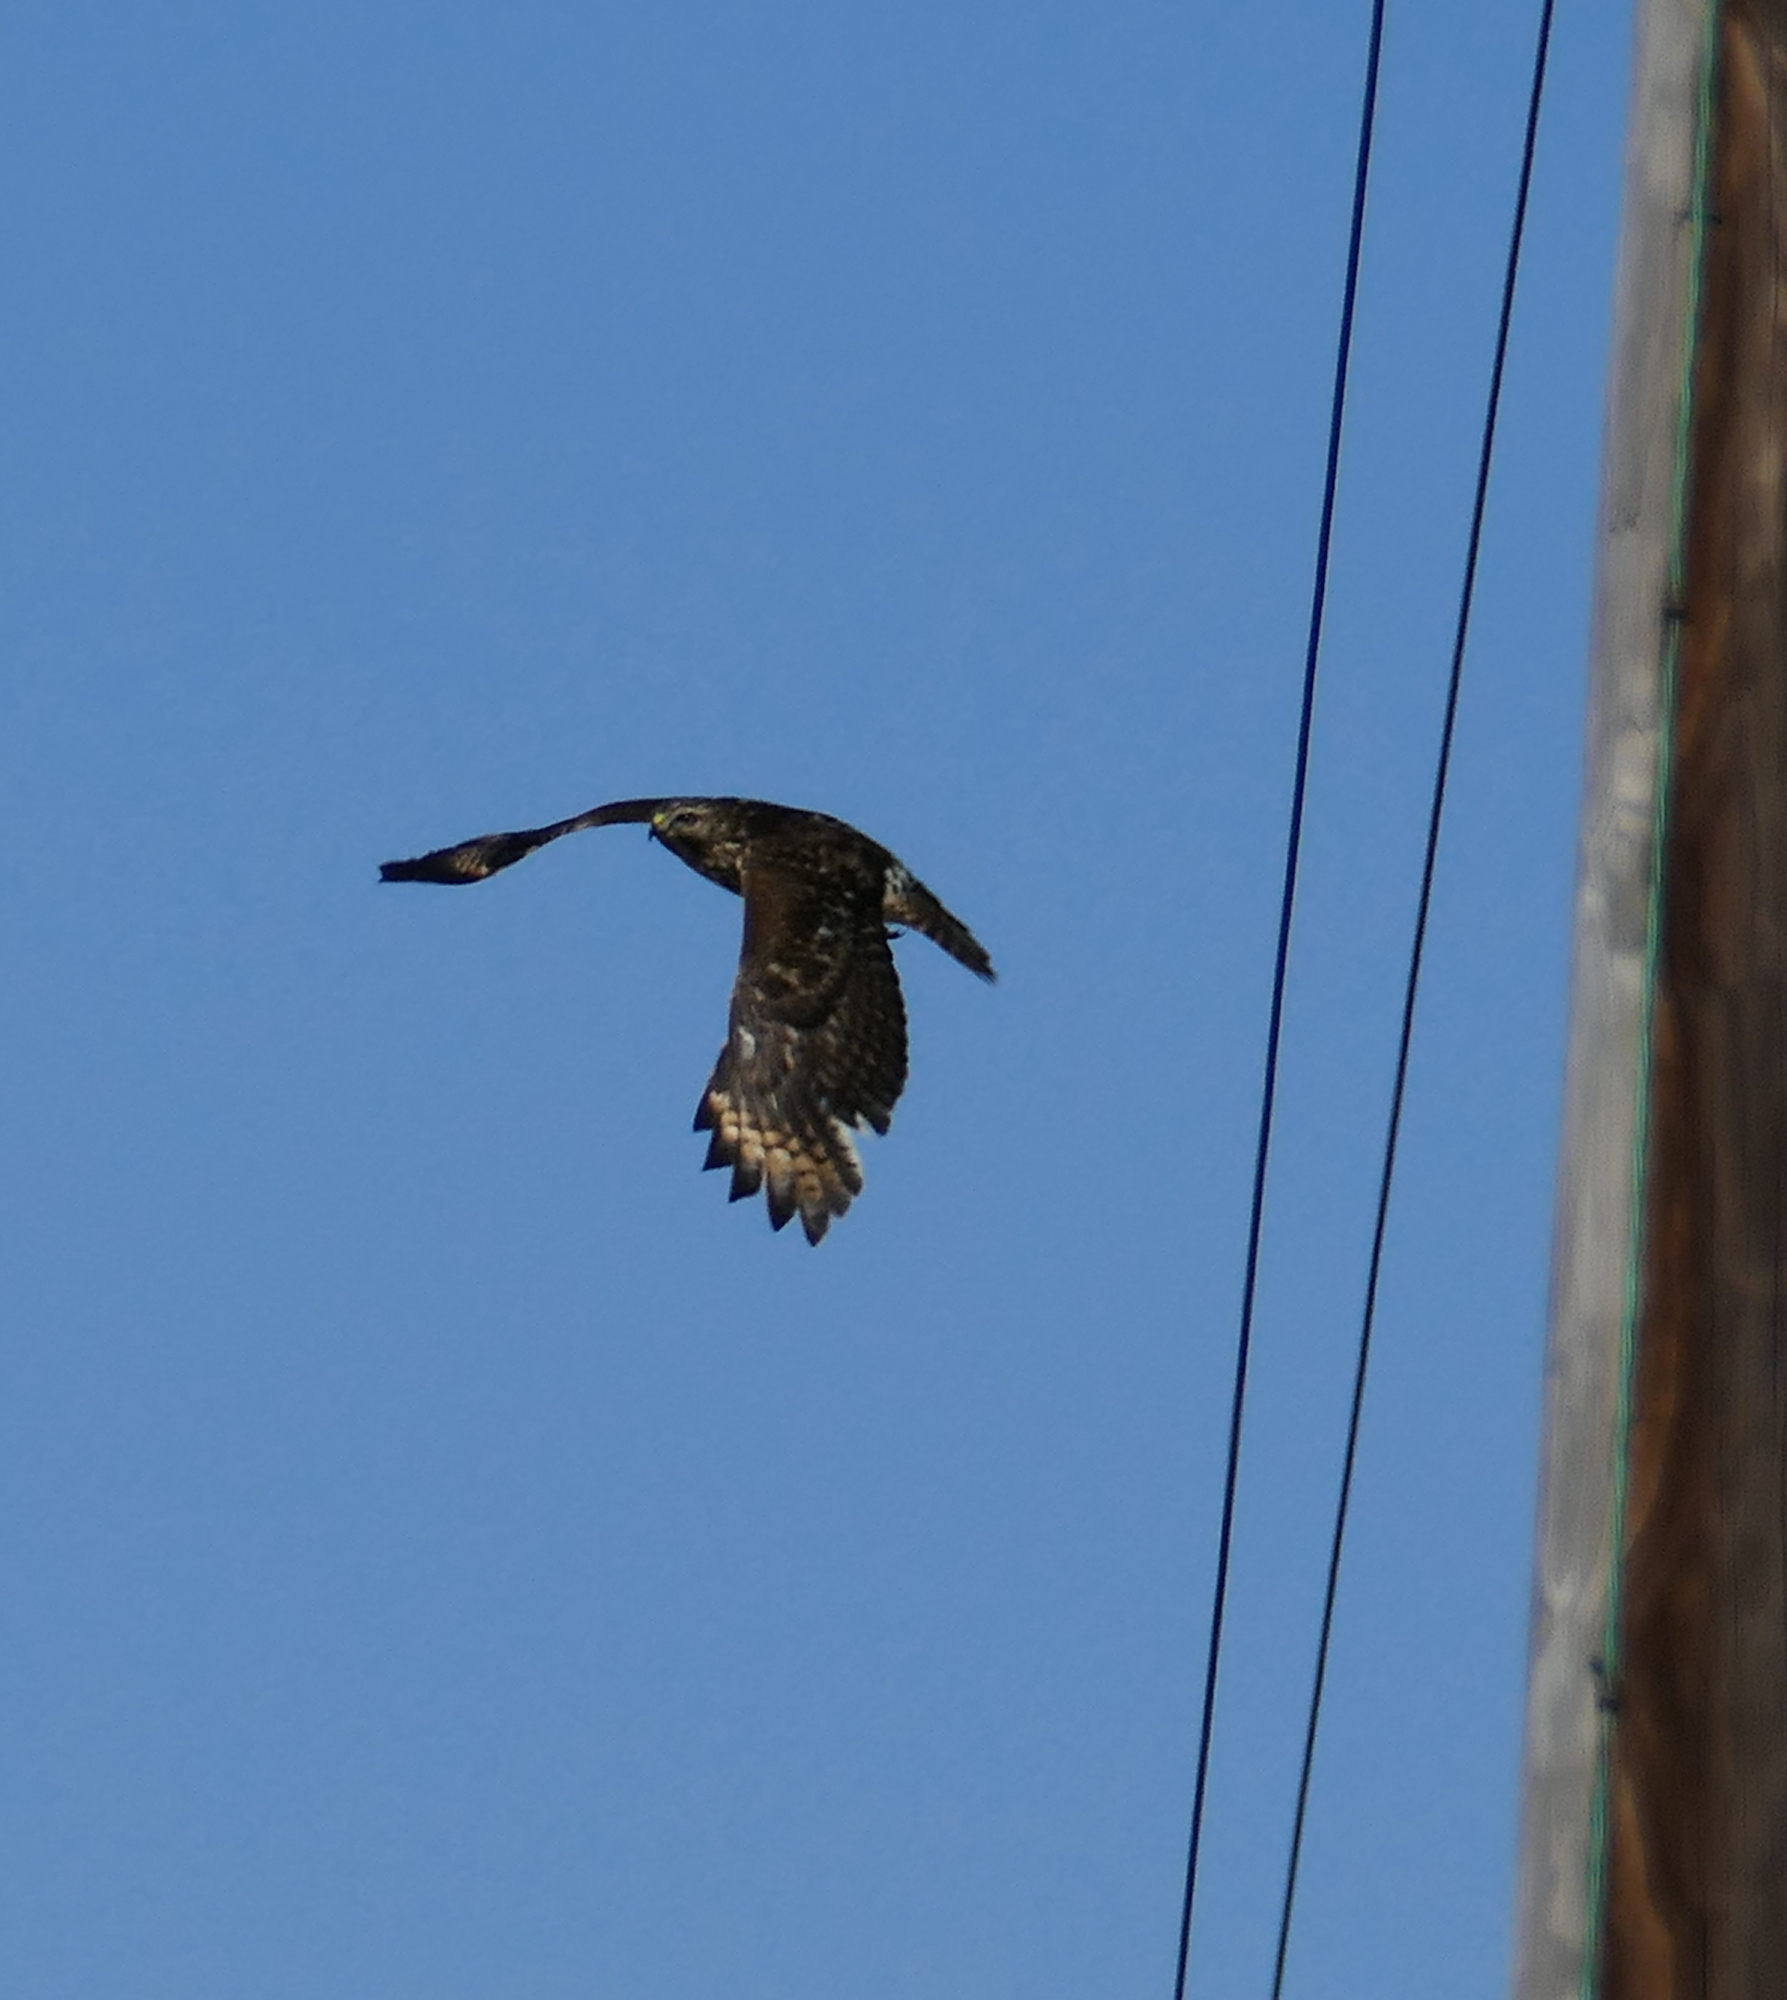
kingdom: Animalia
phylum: Chordata
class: Aves
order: Accipitriformes
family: Accipitridae
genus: Buteo
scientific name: Buteo lineatus
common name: Red-shouldered hawk
